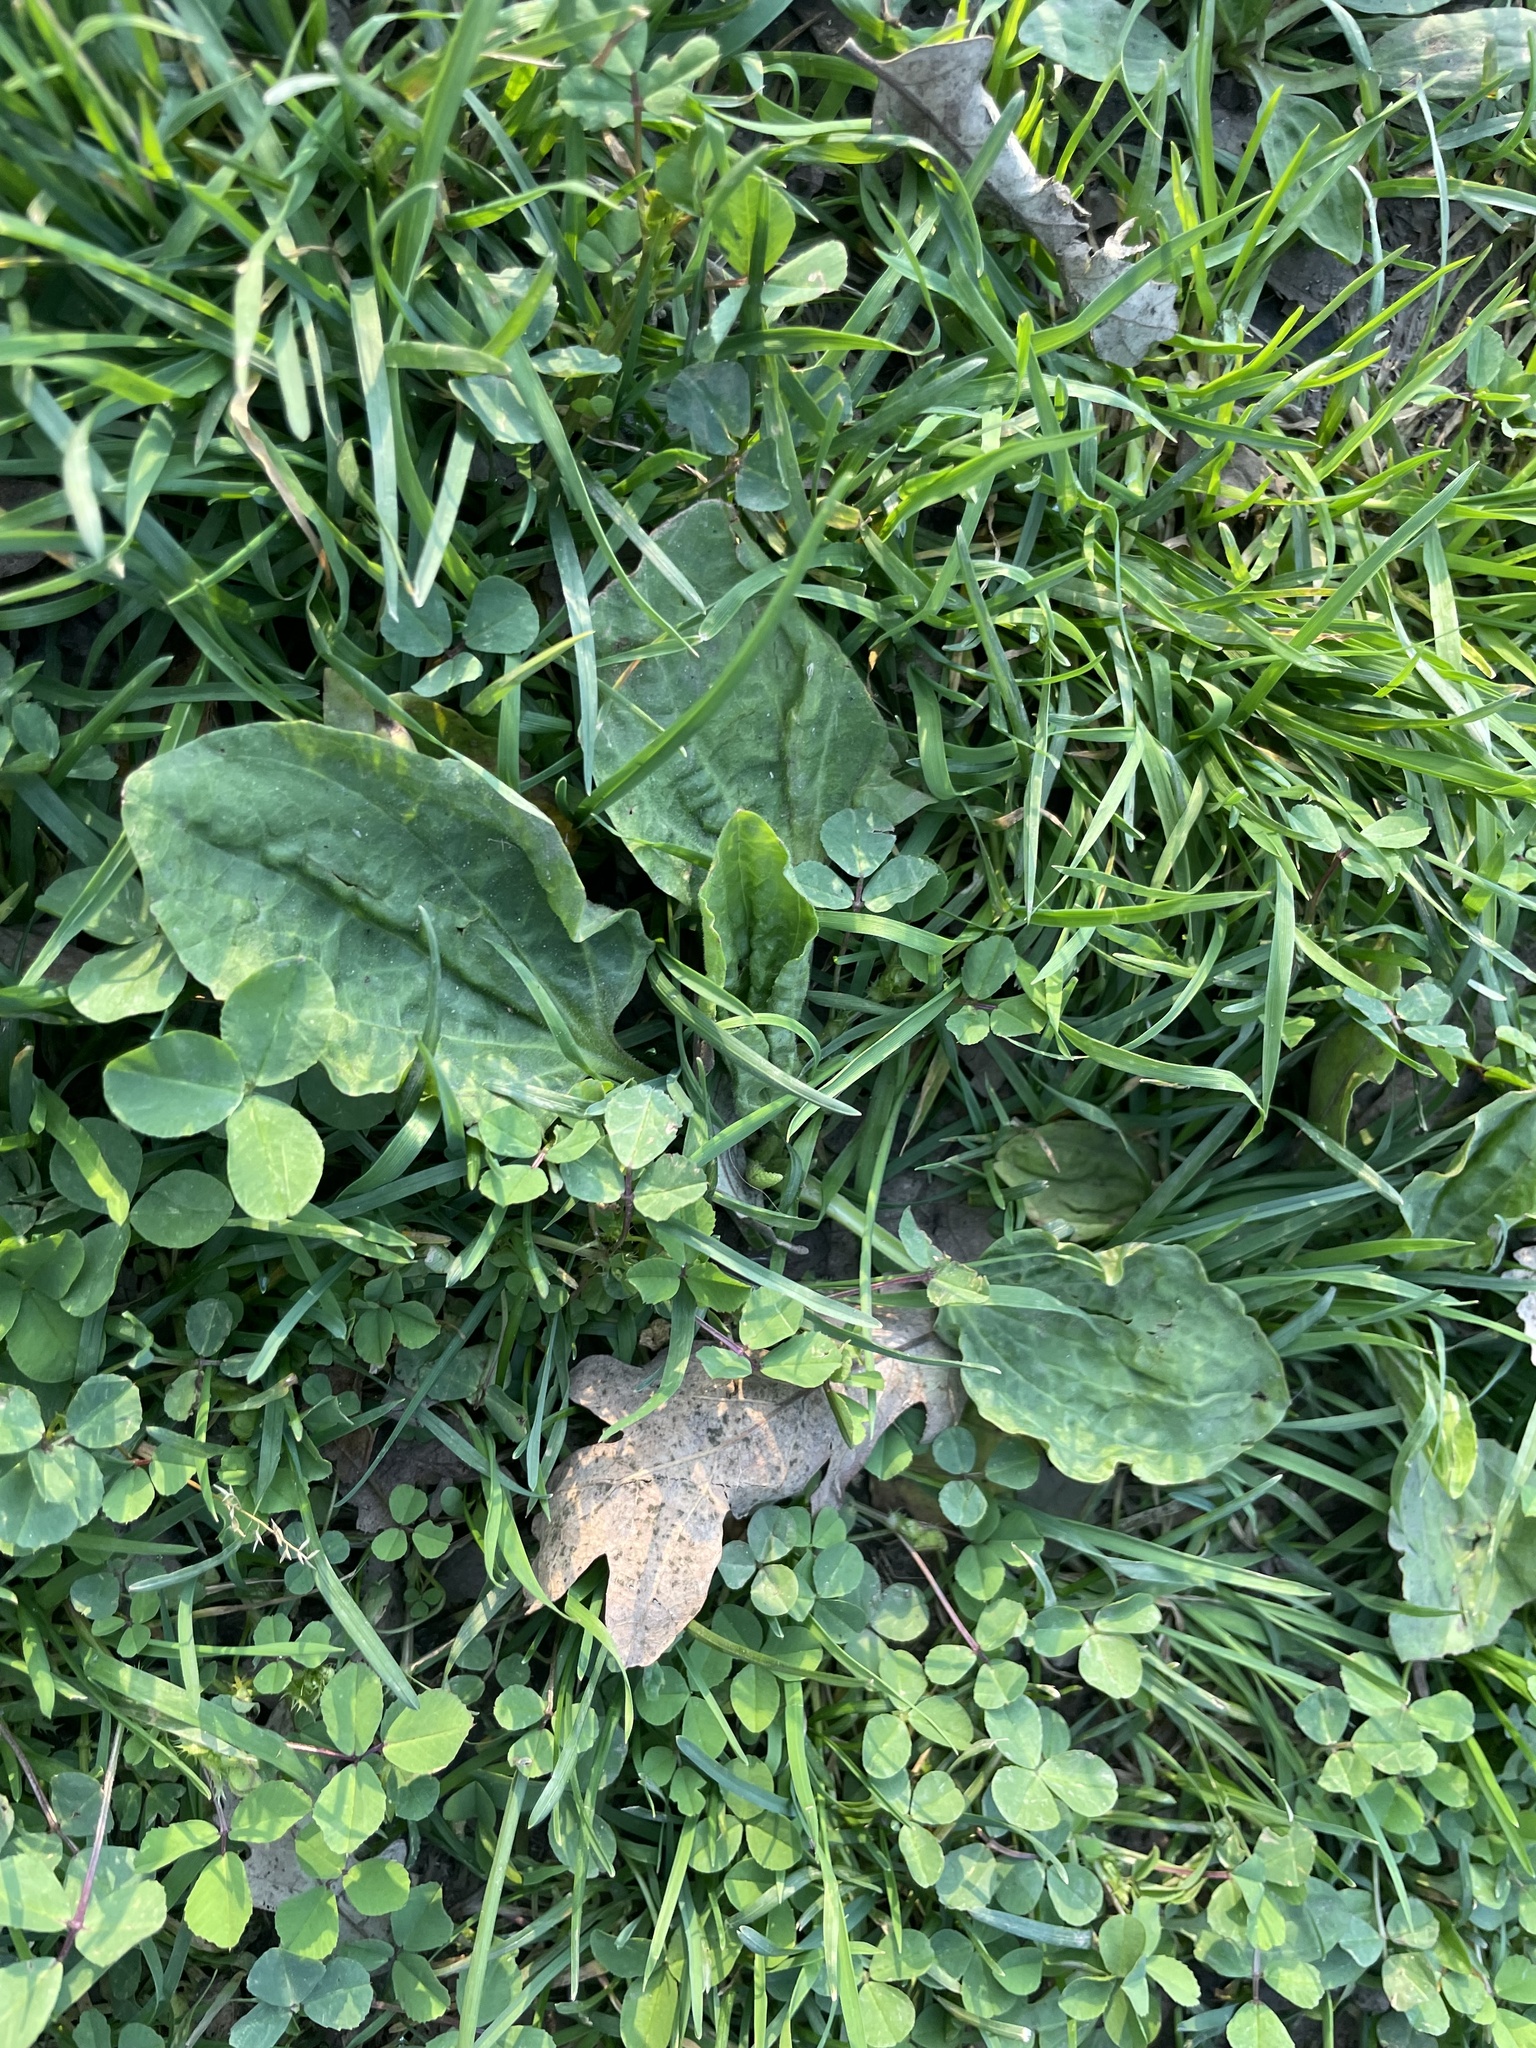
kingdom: Plantae
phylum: Tracheophyta
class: Magnoliopsida
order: Lamiales
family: Plantaginaceae
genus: Plantago
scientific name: Plantago major
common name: Common plantain
